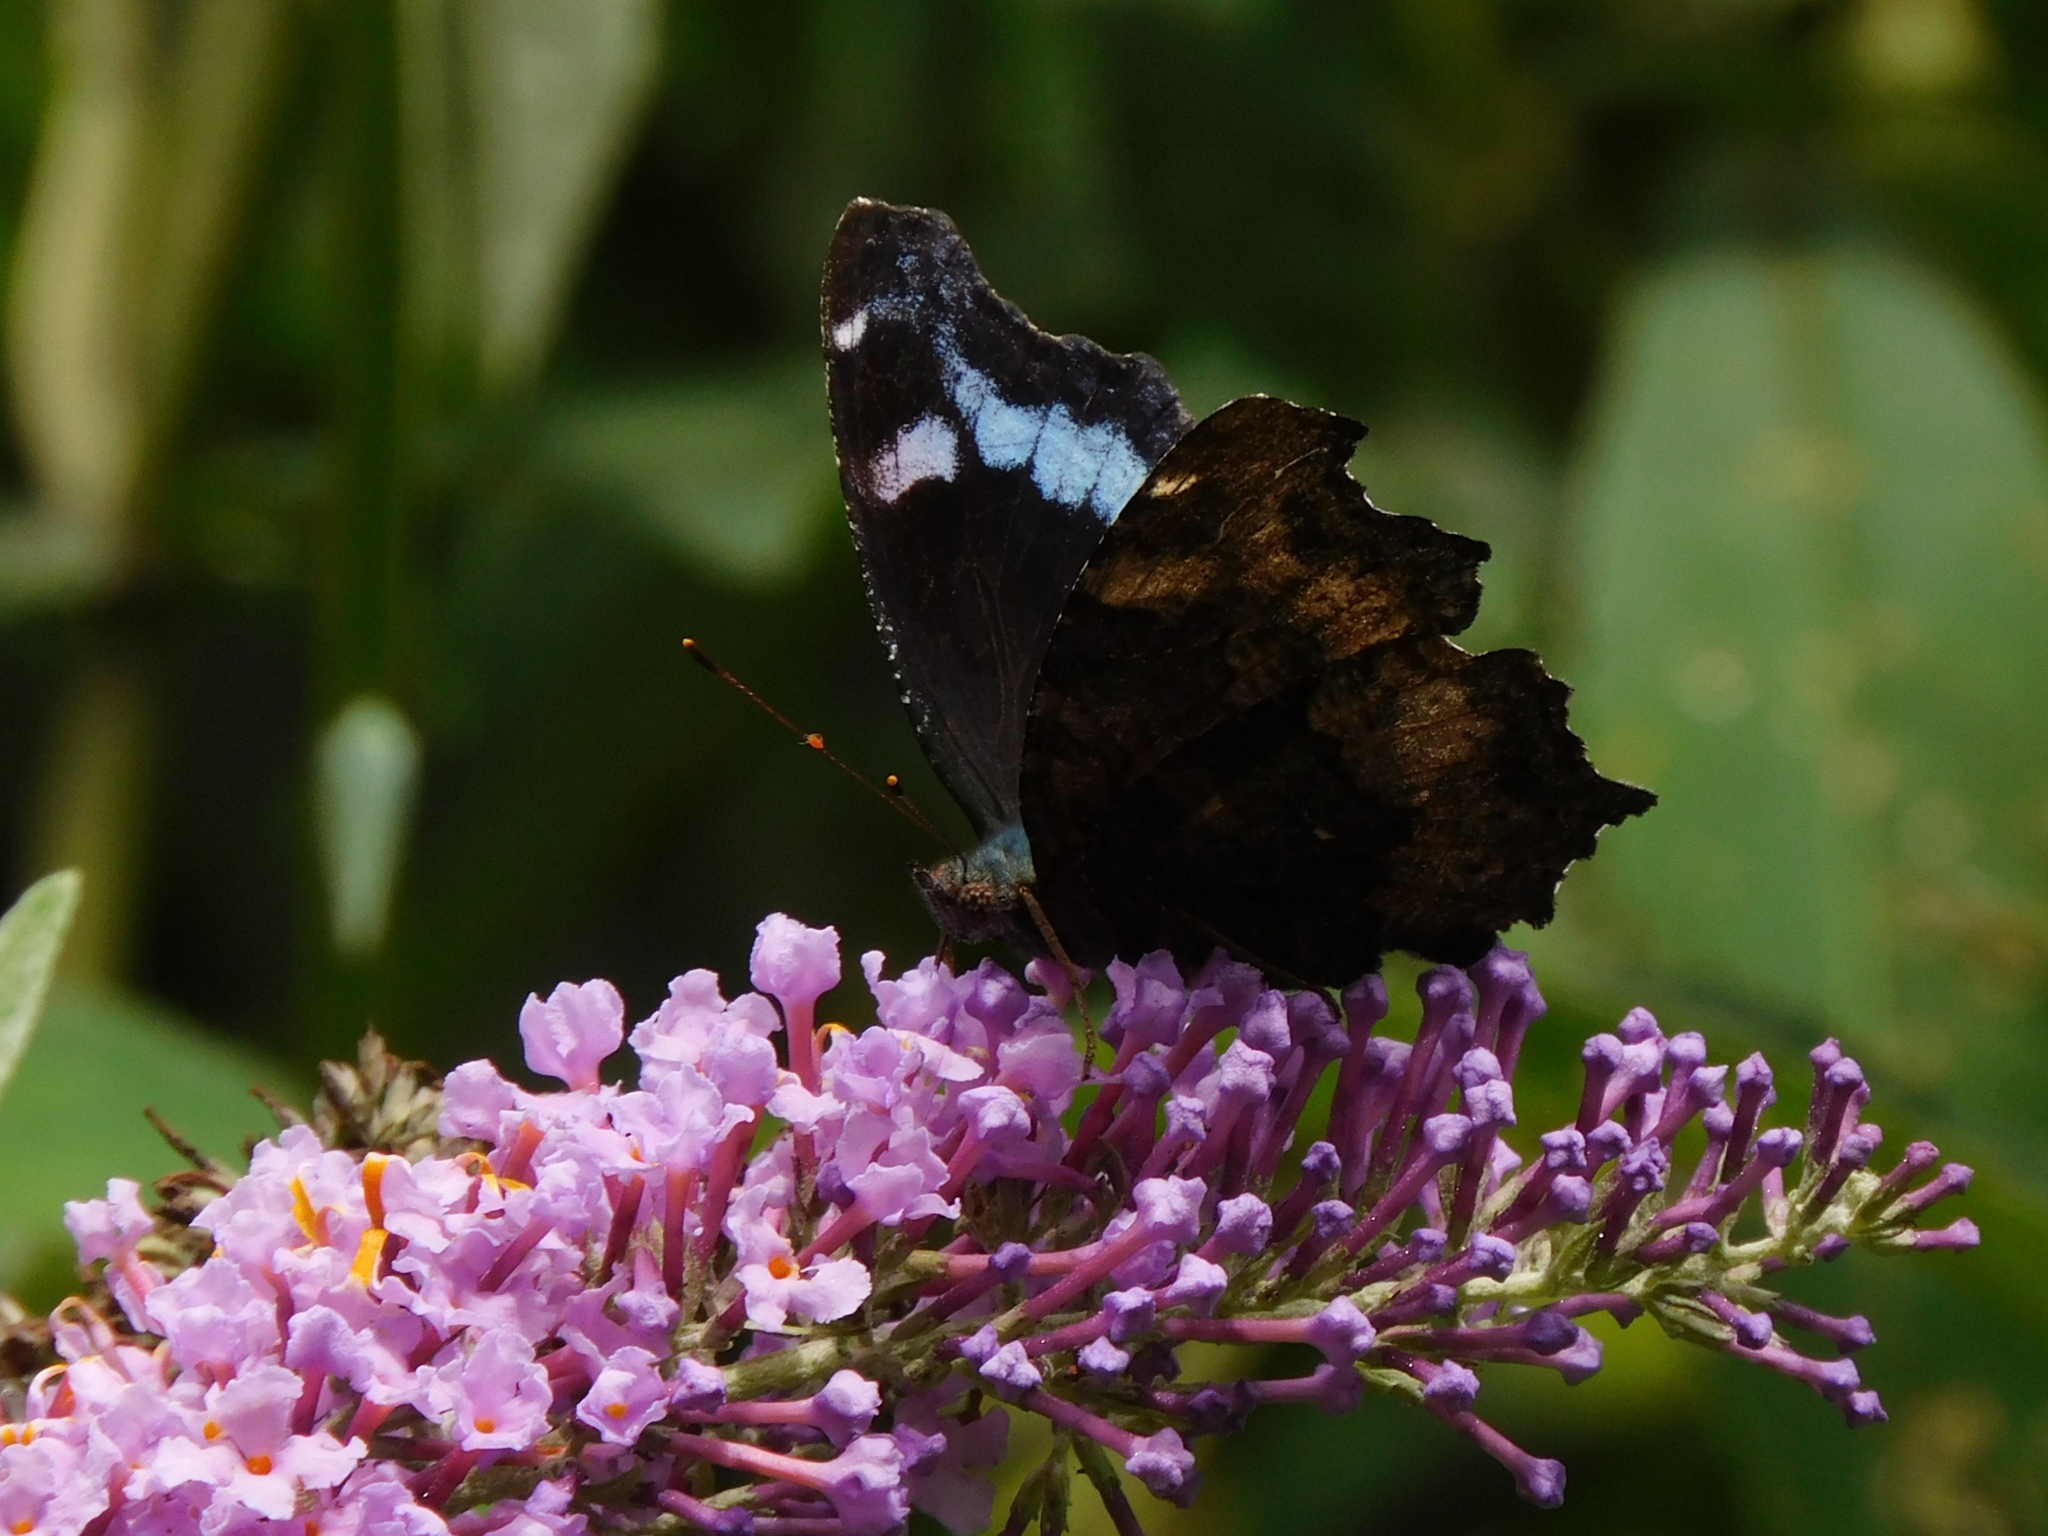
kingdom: Animalia
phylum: Arthropoda
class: Insecta
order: Lepidoptera
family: Nymphalidae
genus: Vanessa
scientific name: Vanessa Kaniska canace
